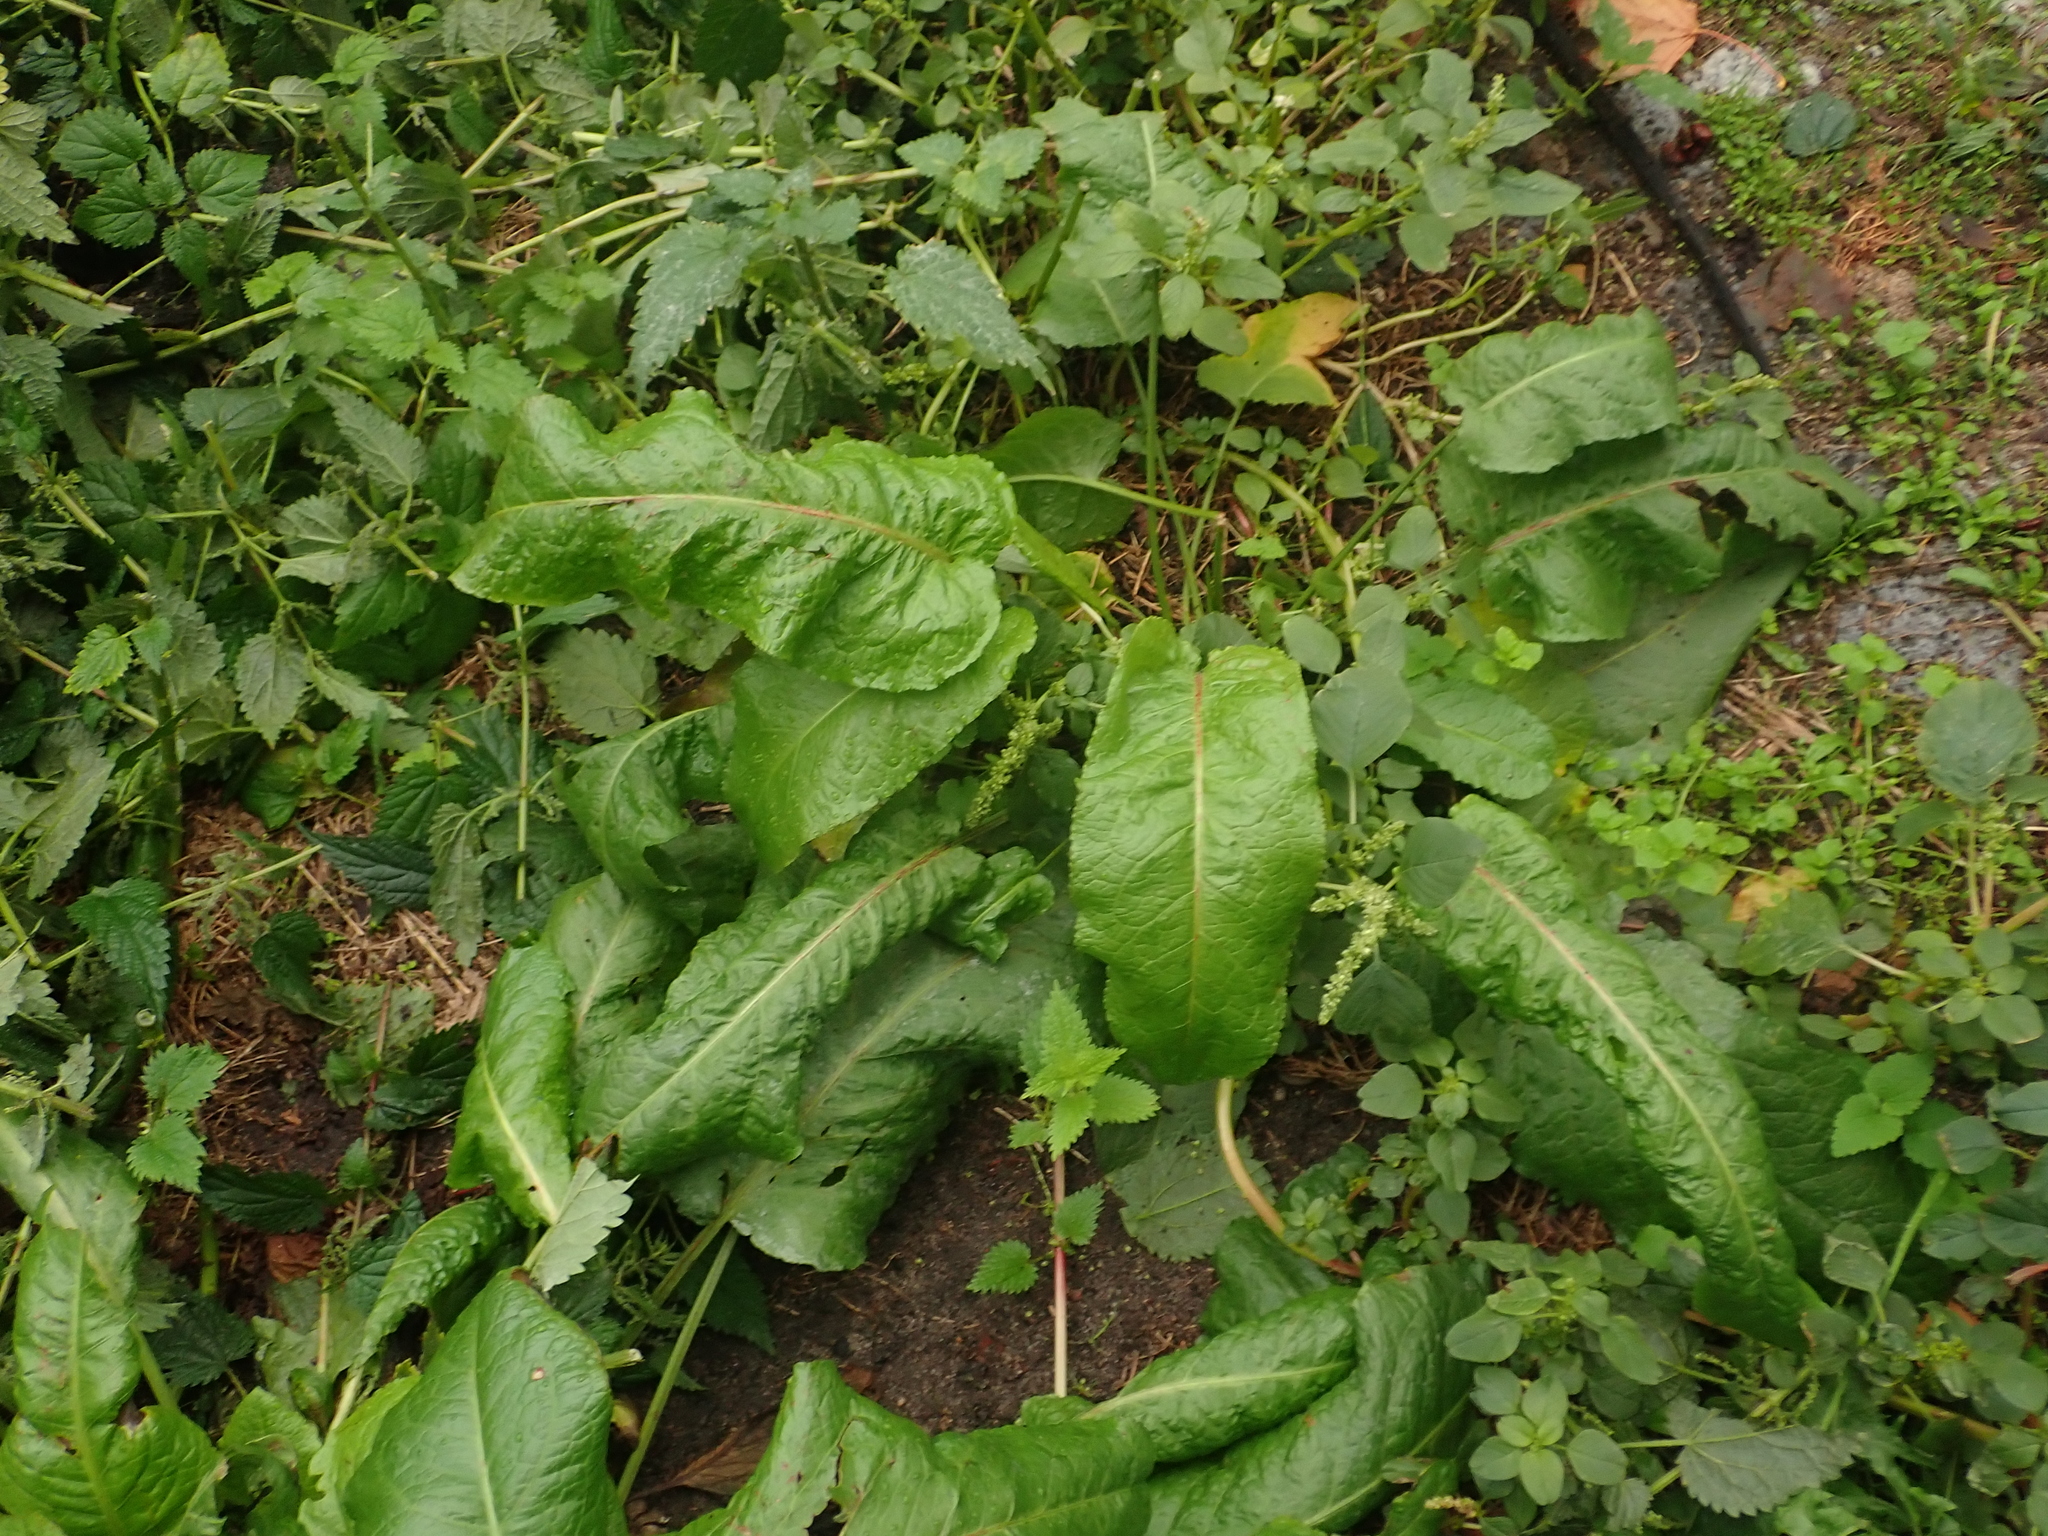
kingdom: Plantae
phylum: Tracheophyta
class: Magnoliopsida
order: Caryophyllales
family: Polygonaceae
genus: Rumex
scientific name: Rumex obtusifolius
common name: Bitter dock
